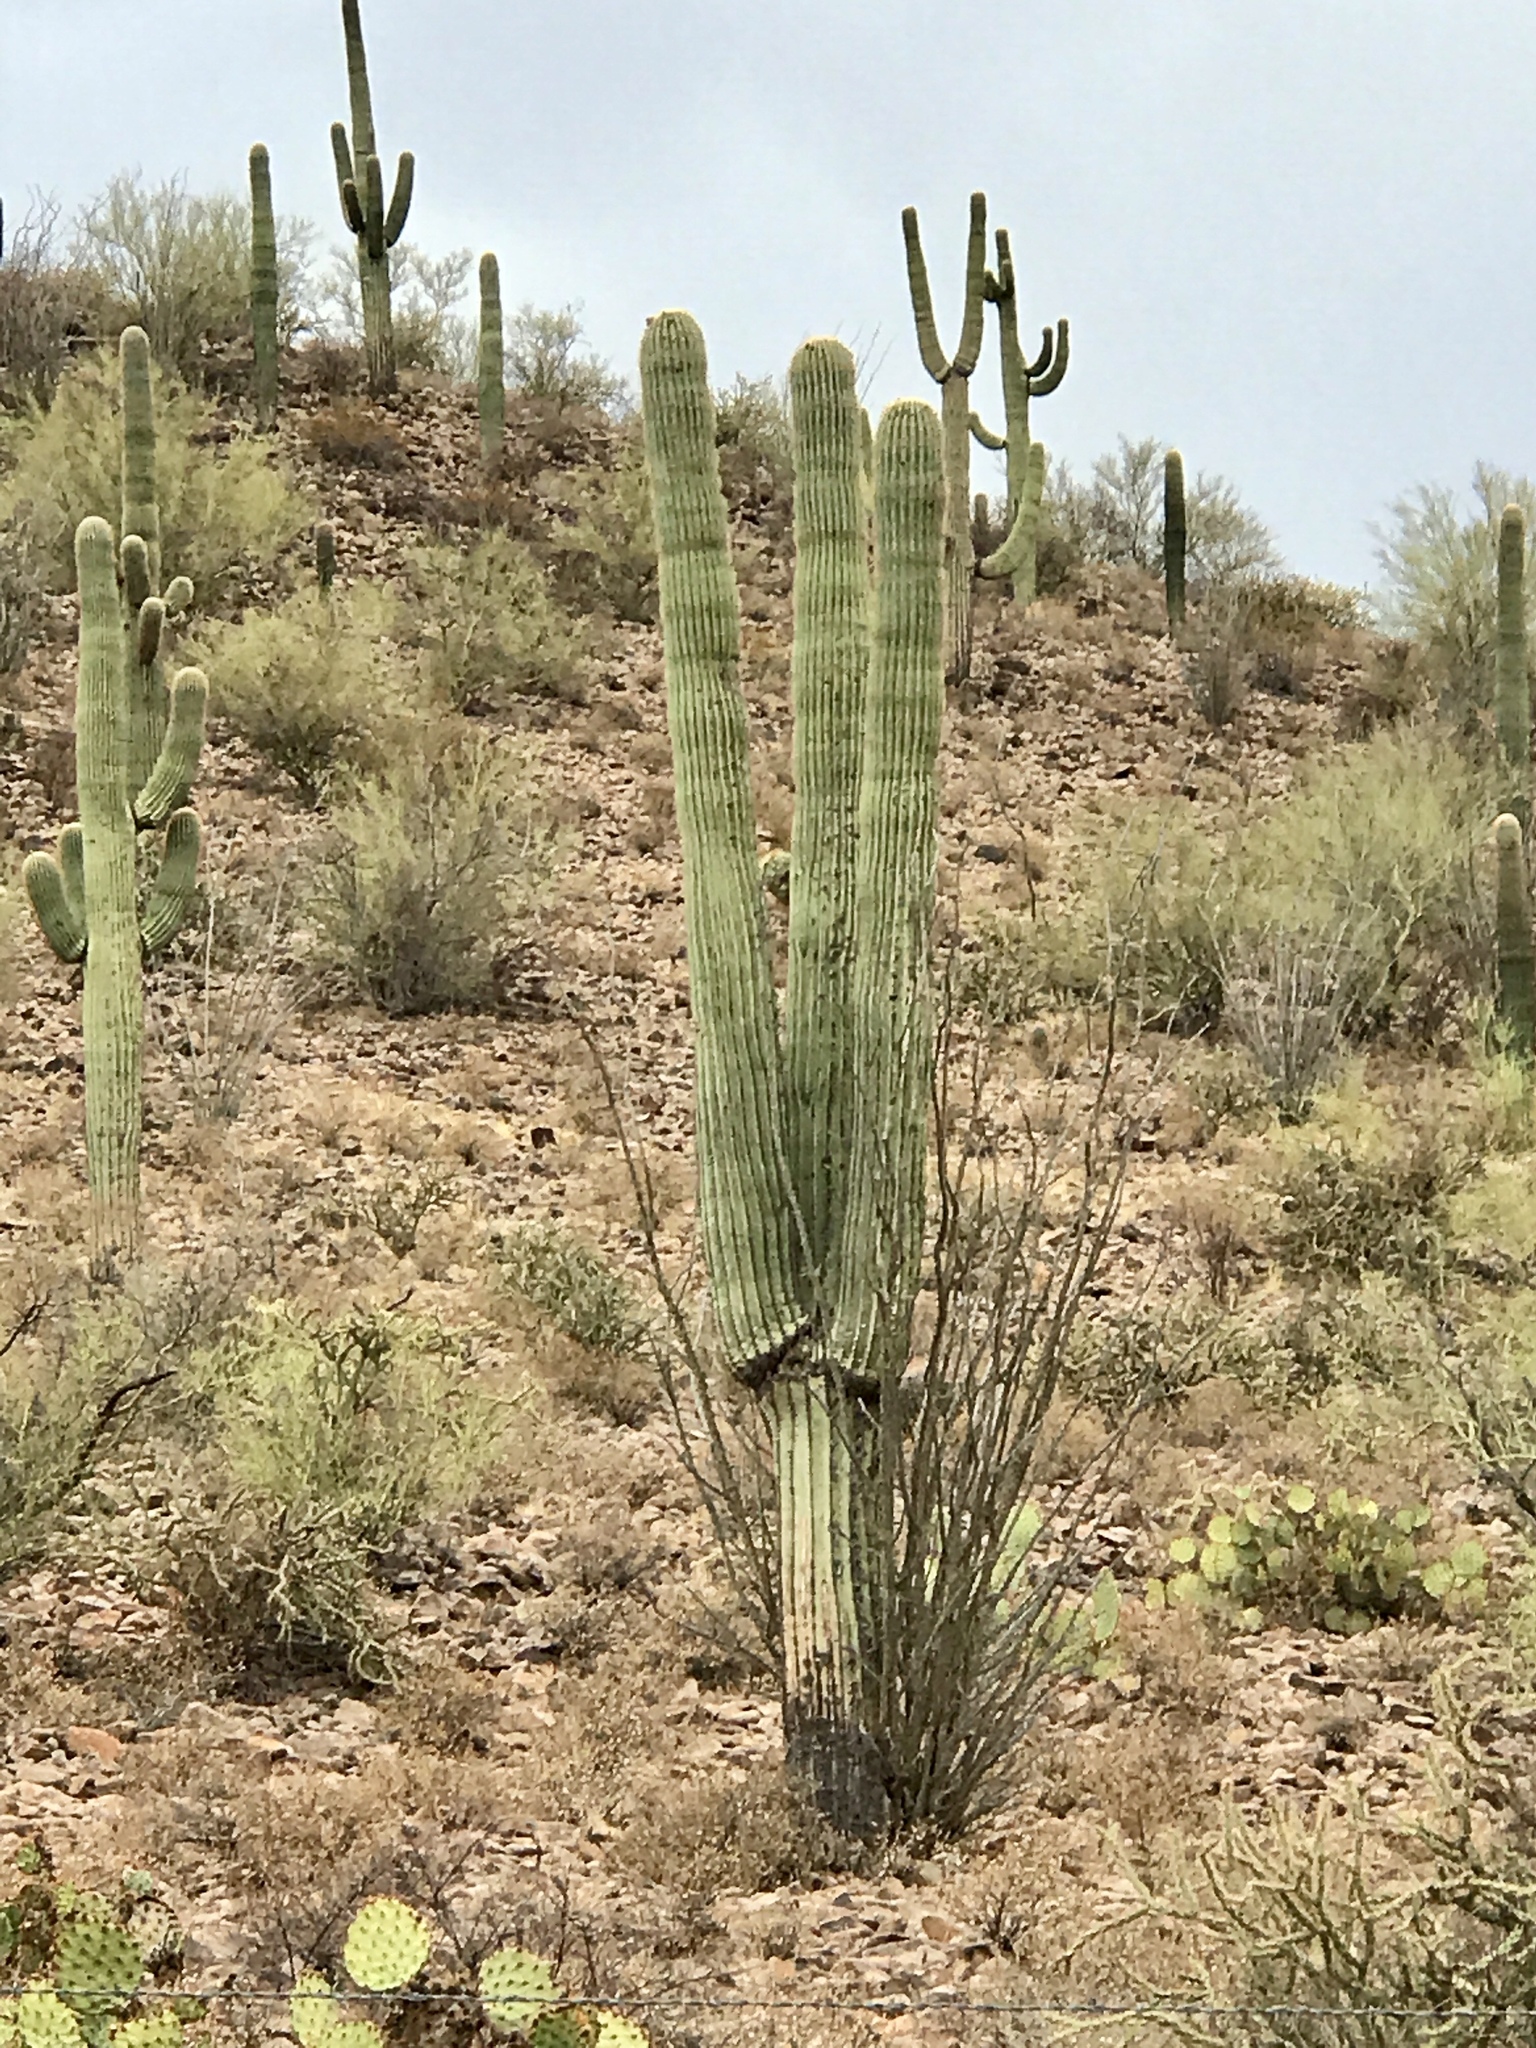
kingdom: Plantae
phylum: Tracheophyta
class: Magnoliopsida
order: Caryophyllales
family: Cactaceae
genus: Carnegiea
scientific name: Carnegiea gigantea
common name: Saguaro
